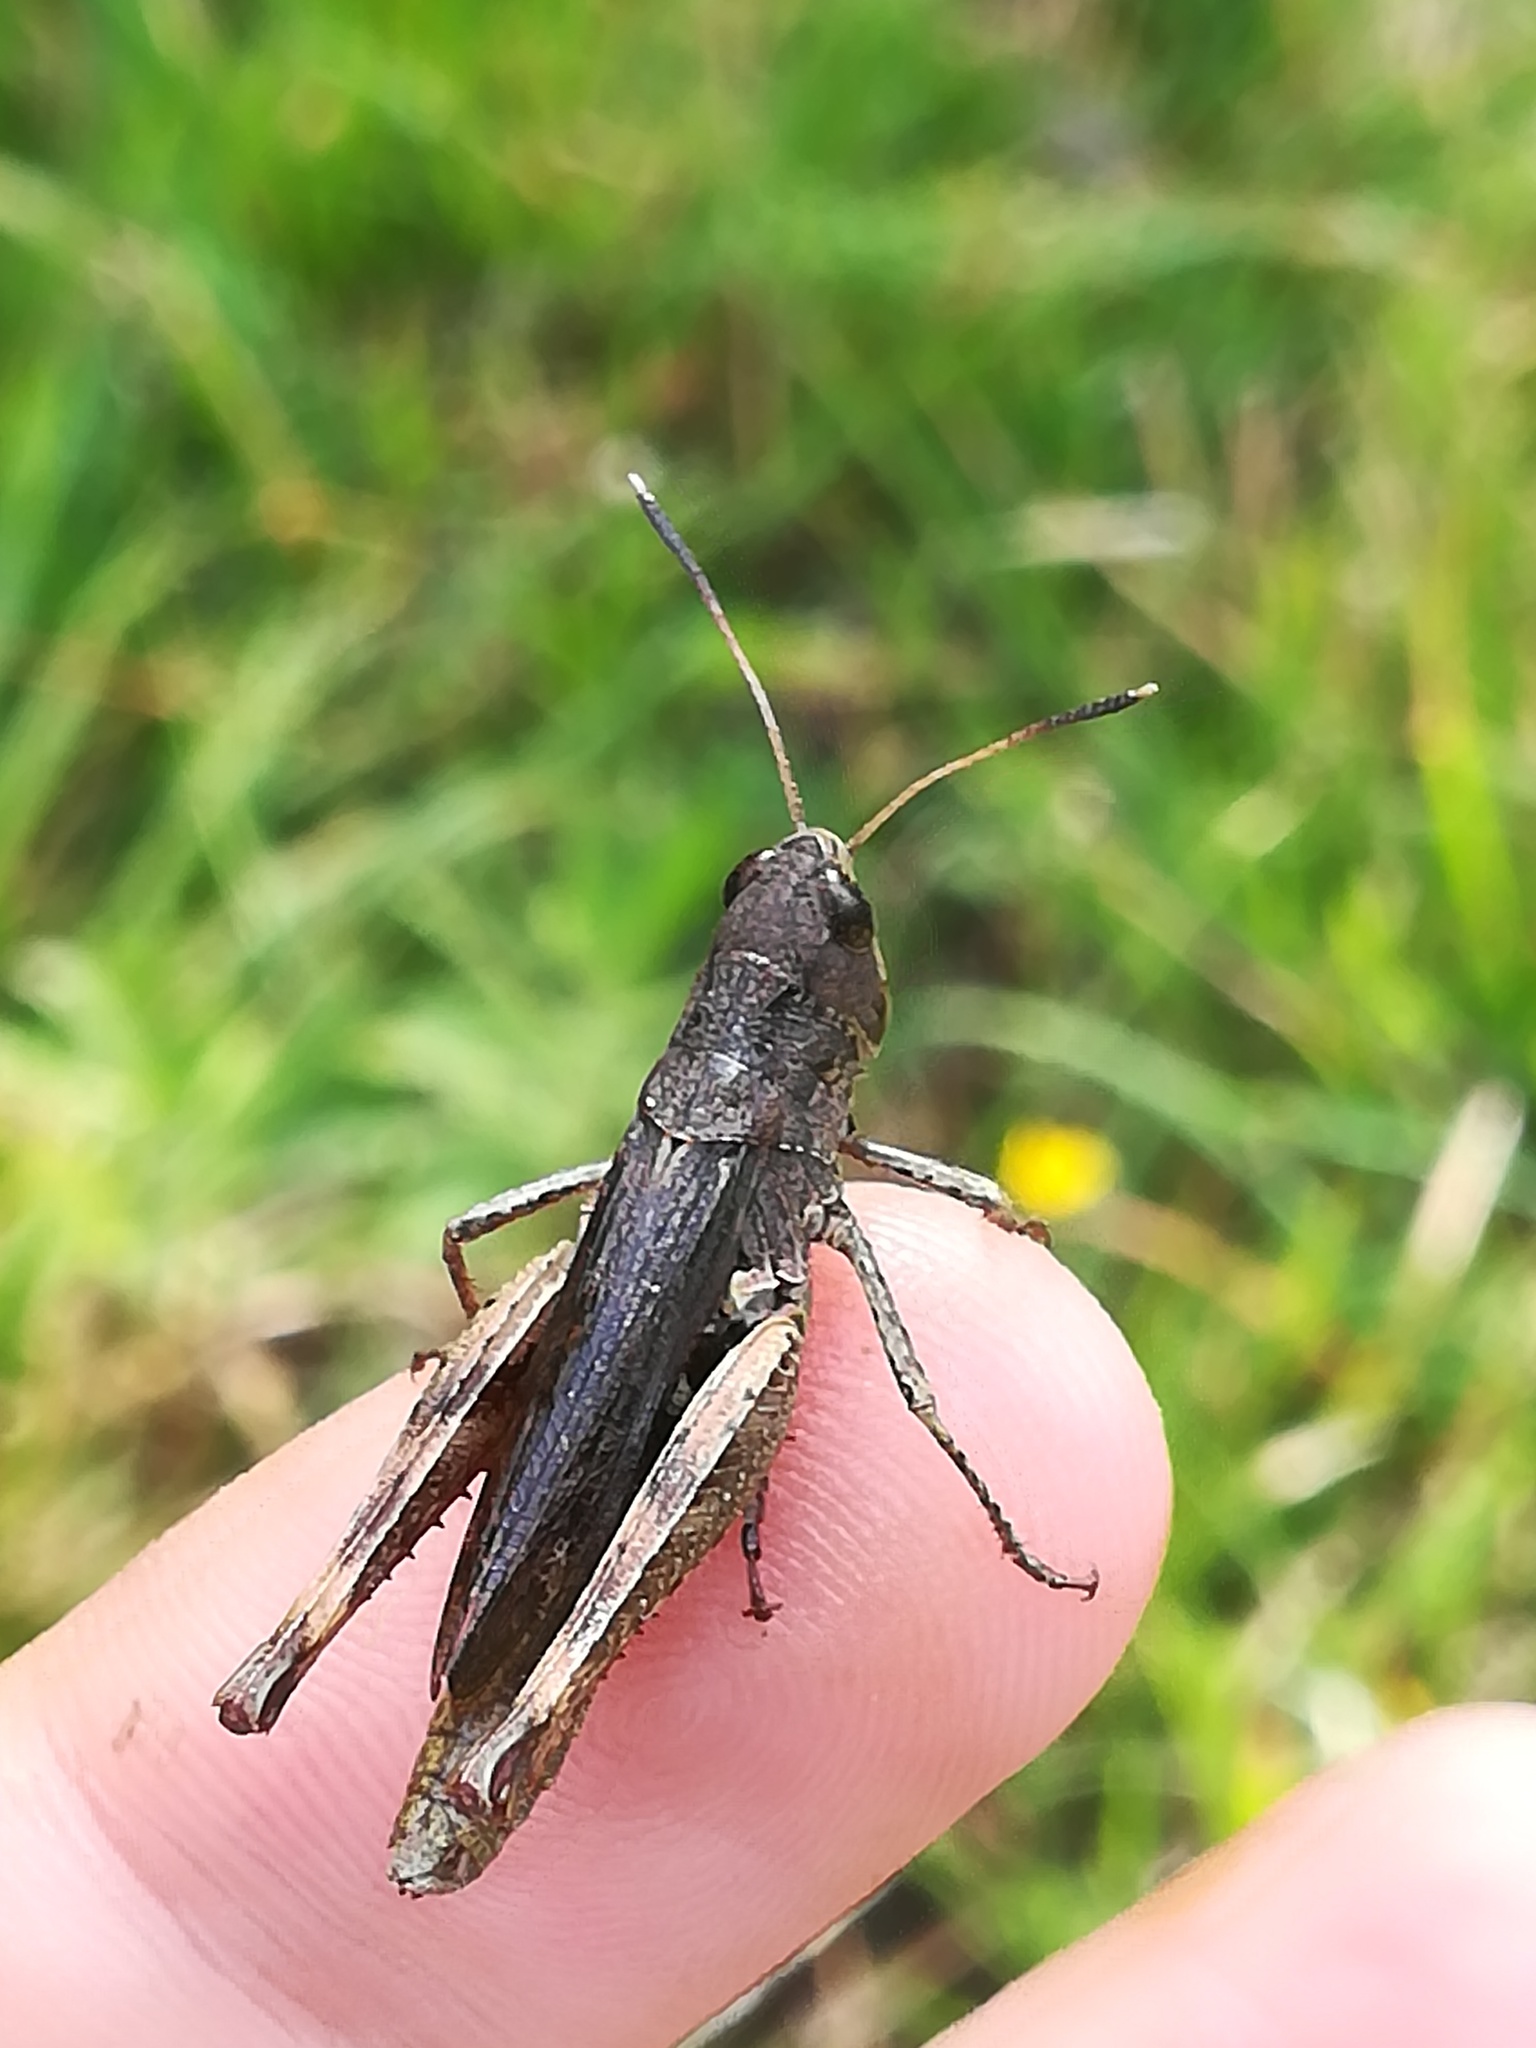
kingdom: Animalia
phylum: Arthropoda
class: Insecta
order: Orthoptera
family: Acrididae
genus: Gomphocerippus
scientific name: Gomphocerippus rufus
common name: Rufous grasshopper
